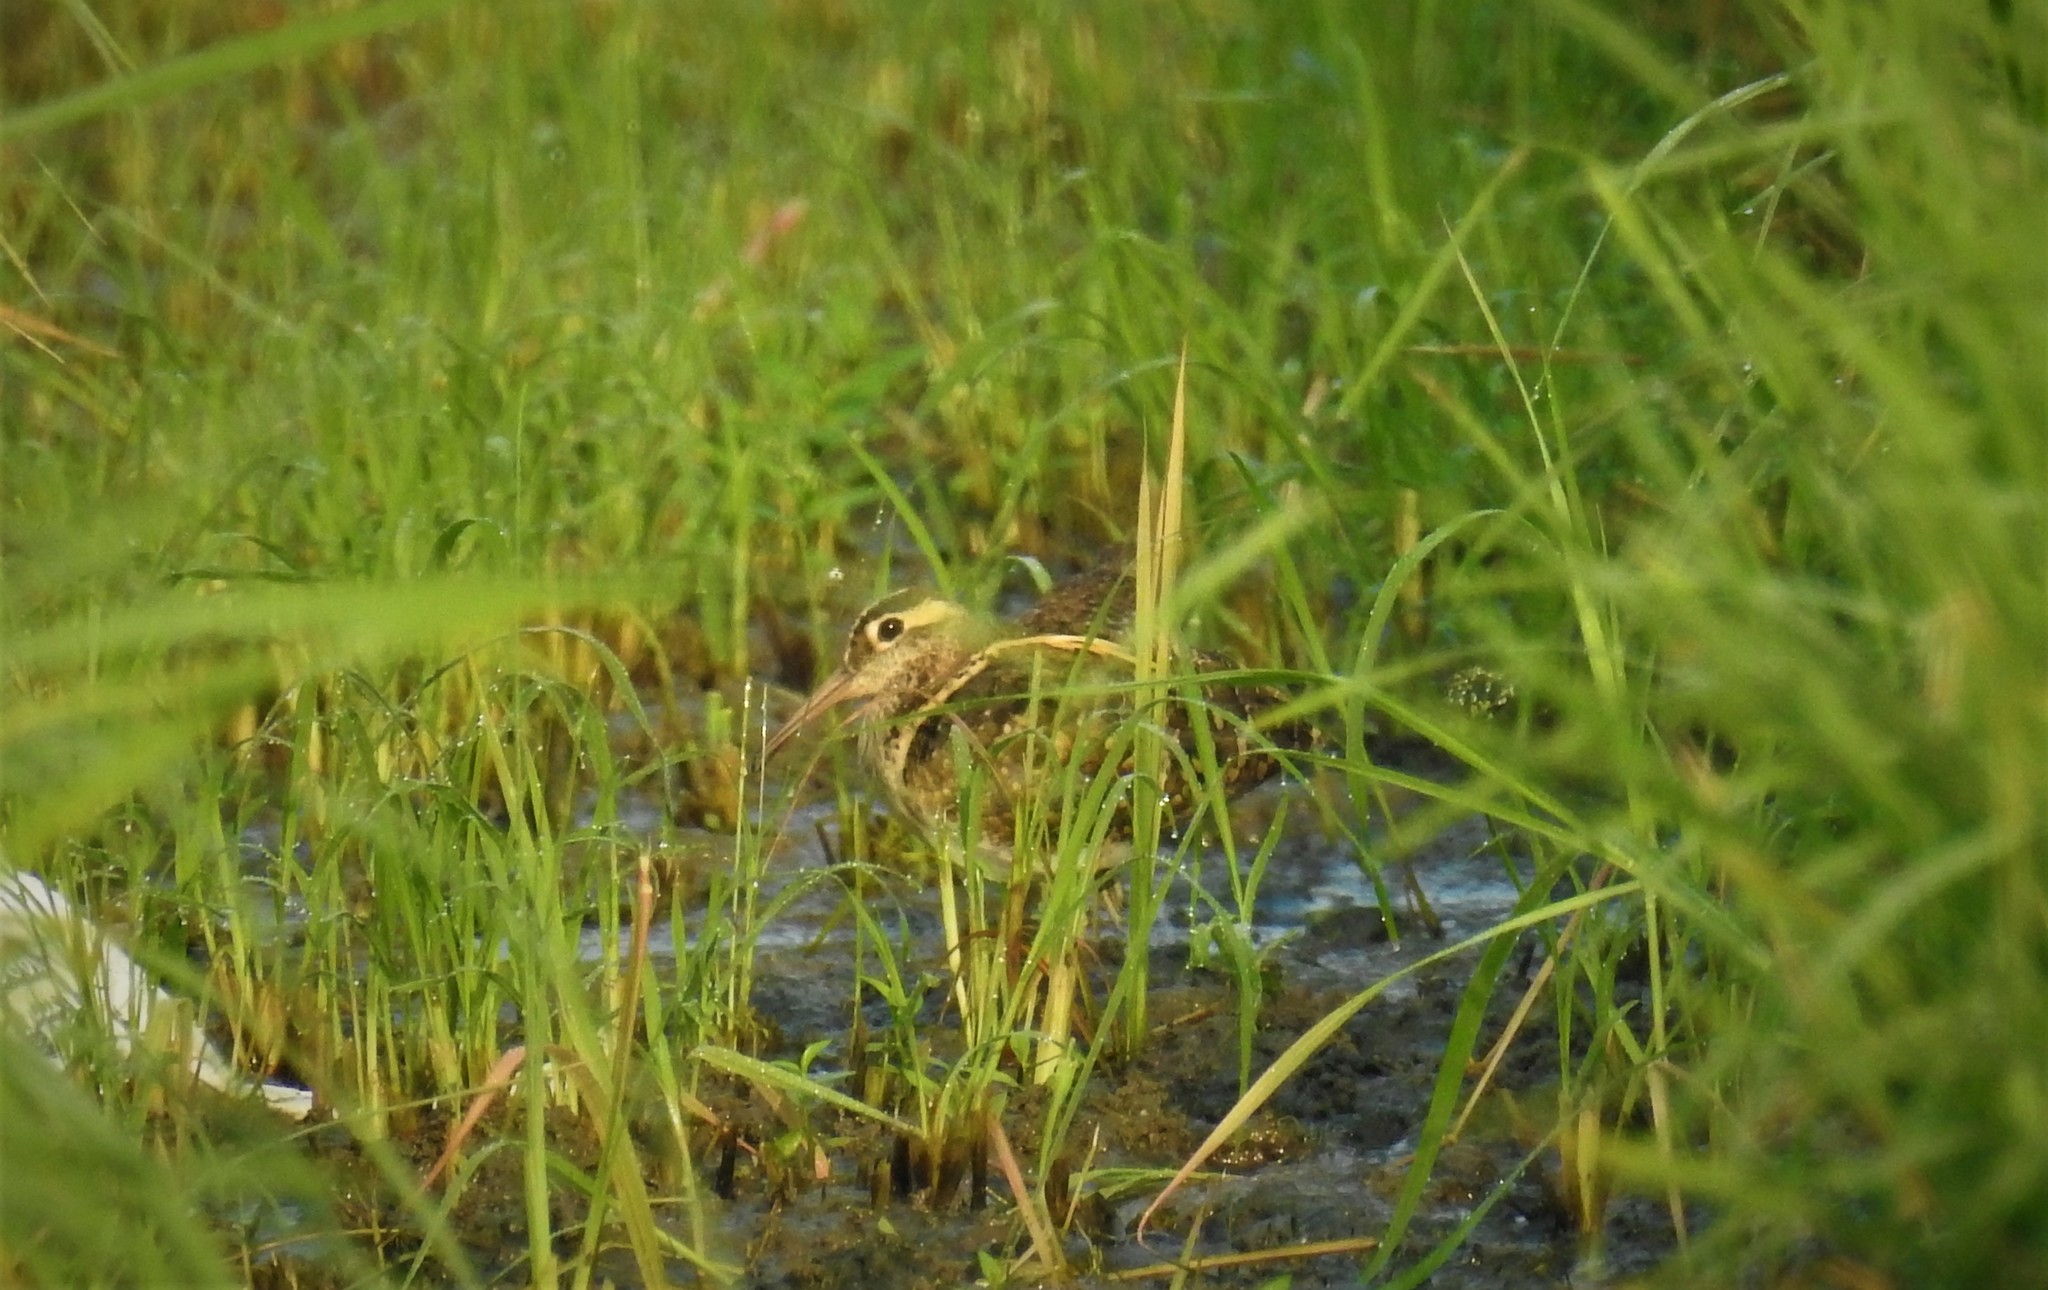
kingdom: Animalia
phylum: Chordata
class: Aves
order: Charadriiformes
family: Rostratulidae
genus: Rostratula
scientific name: Rostratula benghalensis
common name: Greater painted-snipe
